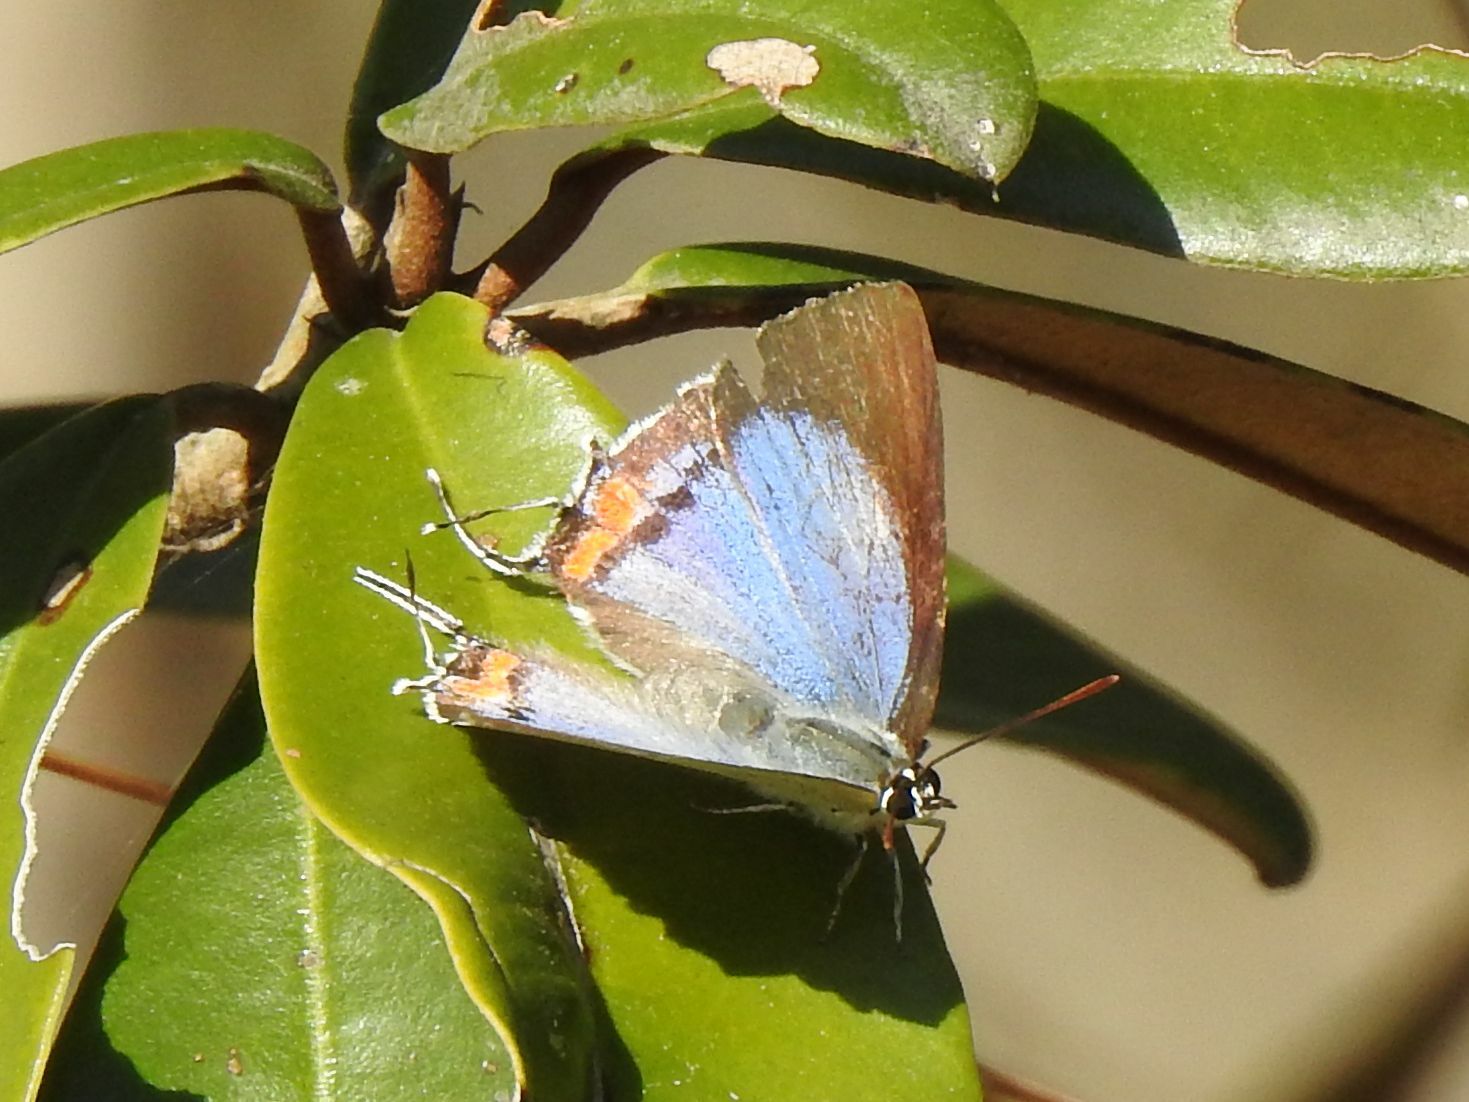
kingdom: Animalia
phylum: Arthropoda
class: Insecta
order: Lepidoptera
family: Lycaenidae
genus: Argiolaus
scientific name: Argiolaus silas
